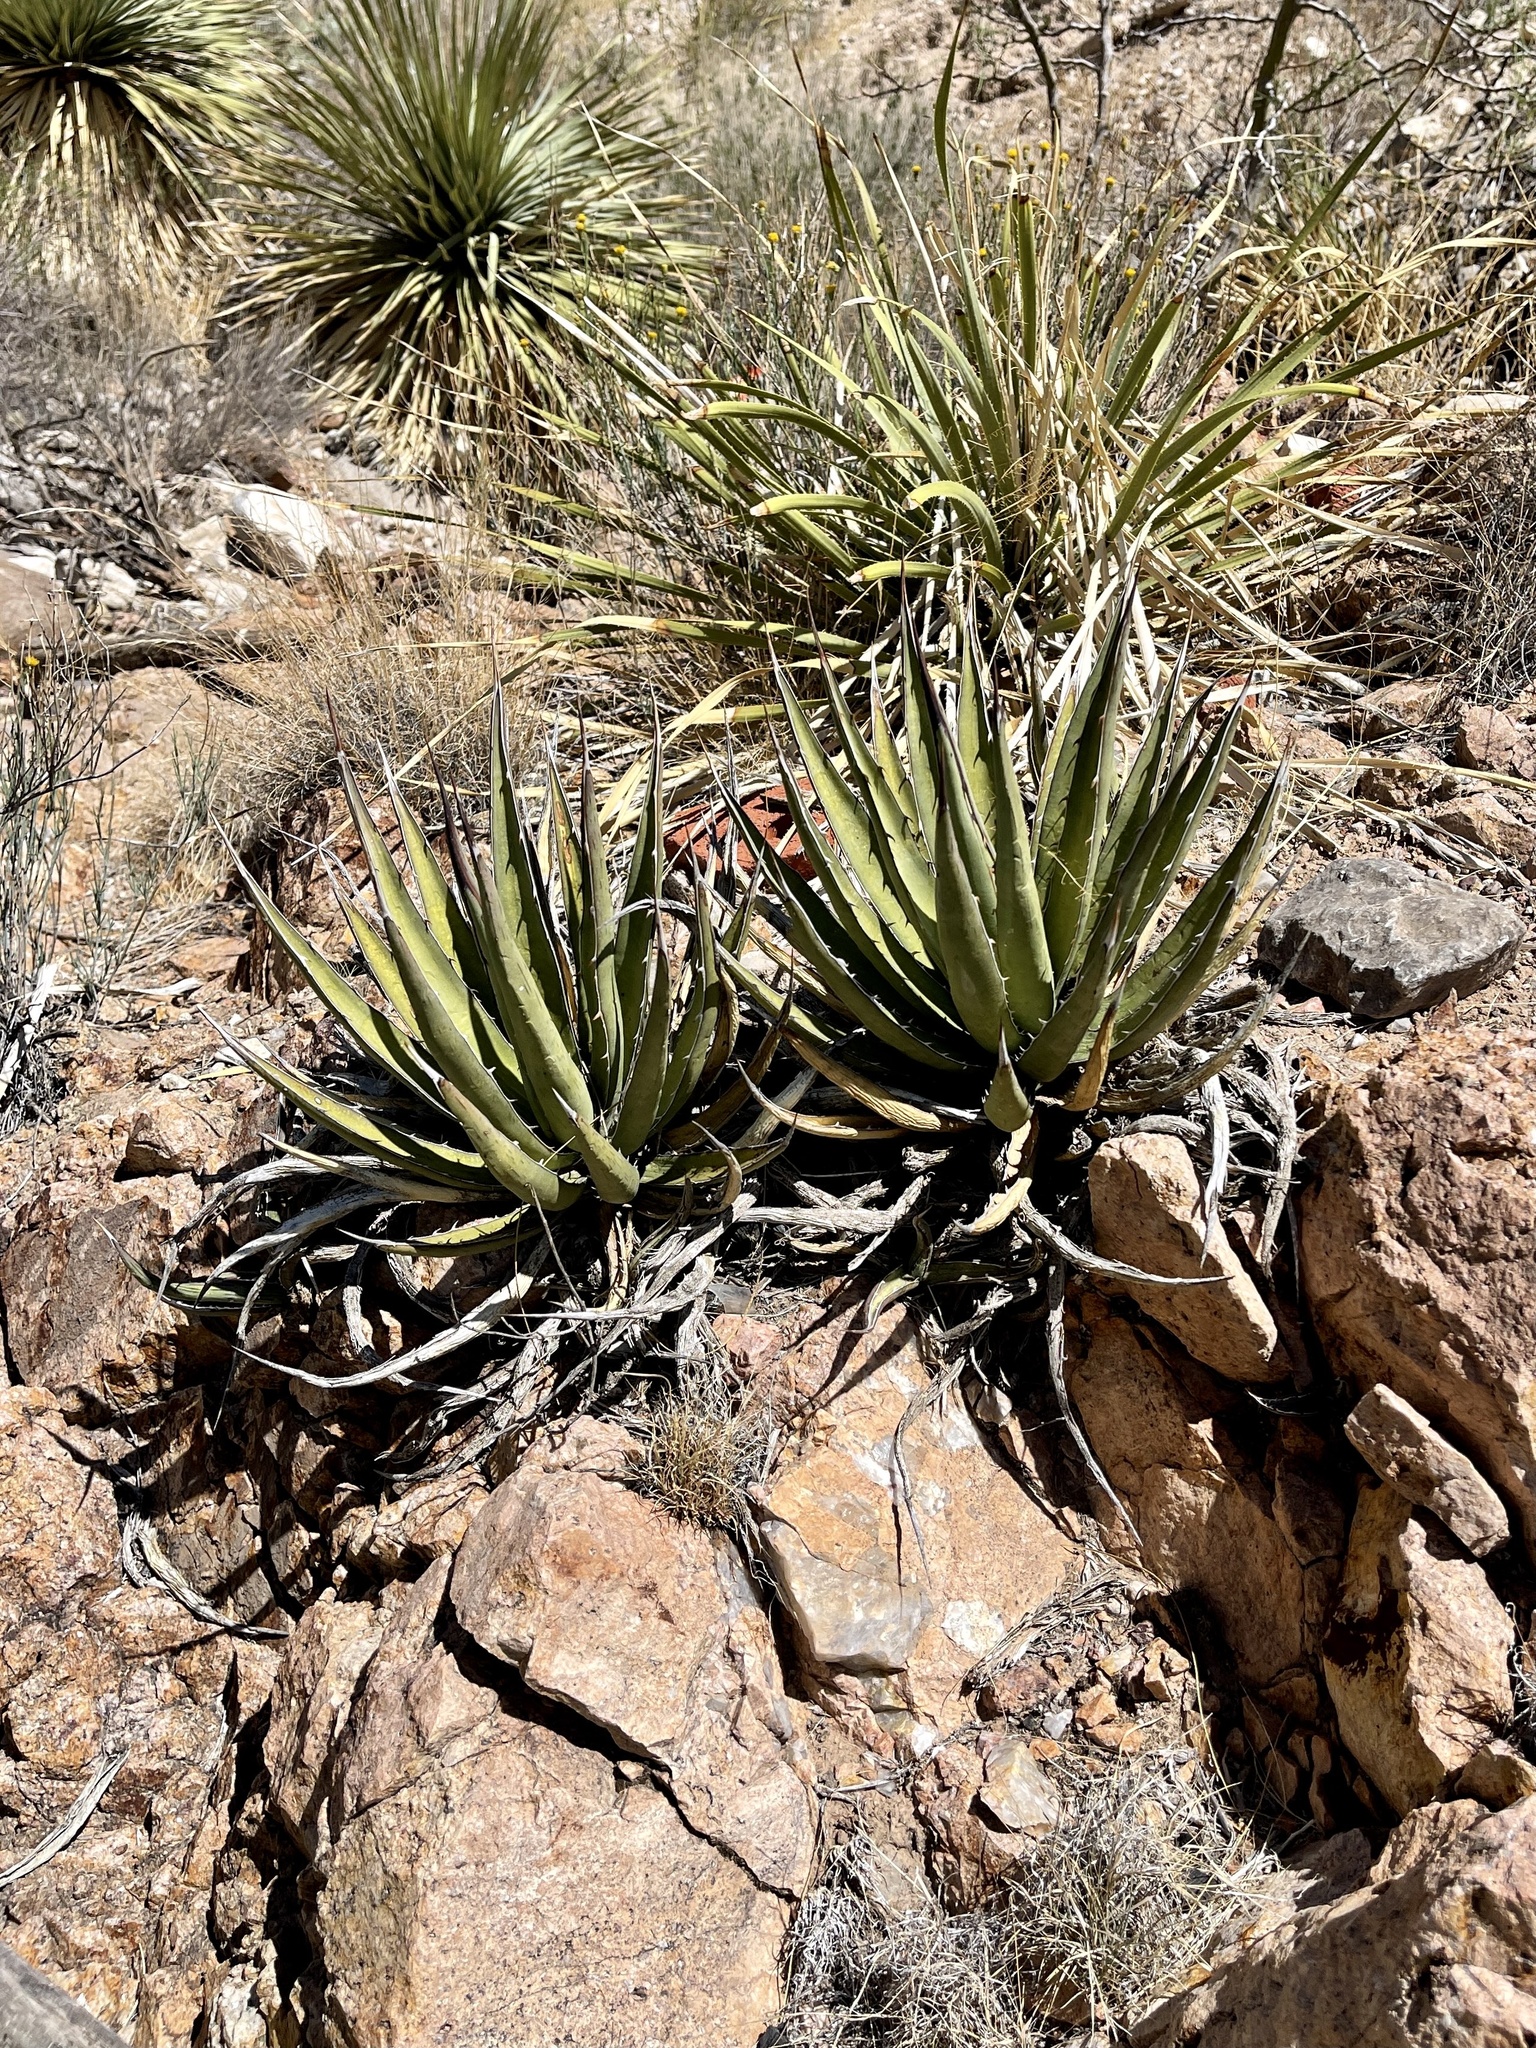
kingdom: Plantae
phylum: Tracheophyta
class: Liliopsida
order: Asparagales
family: Asparagaceae
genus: Agave
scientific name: Agave lechuguilla
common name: Lecheguilla agave
